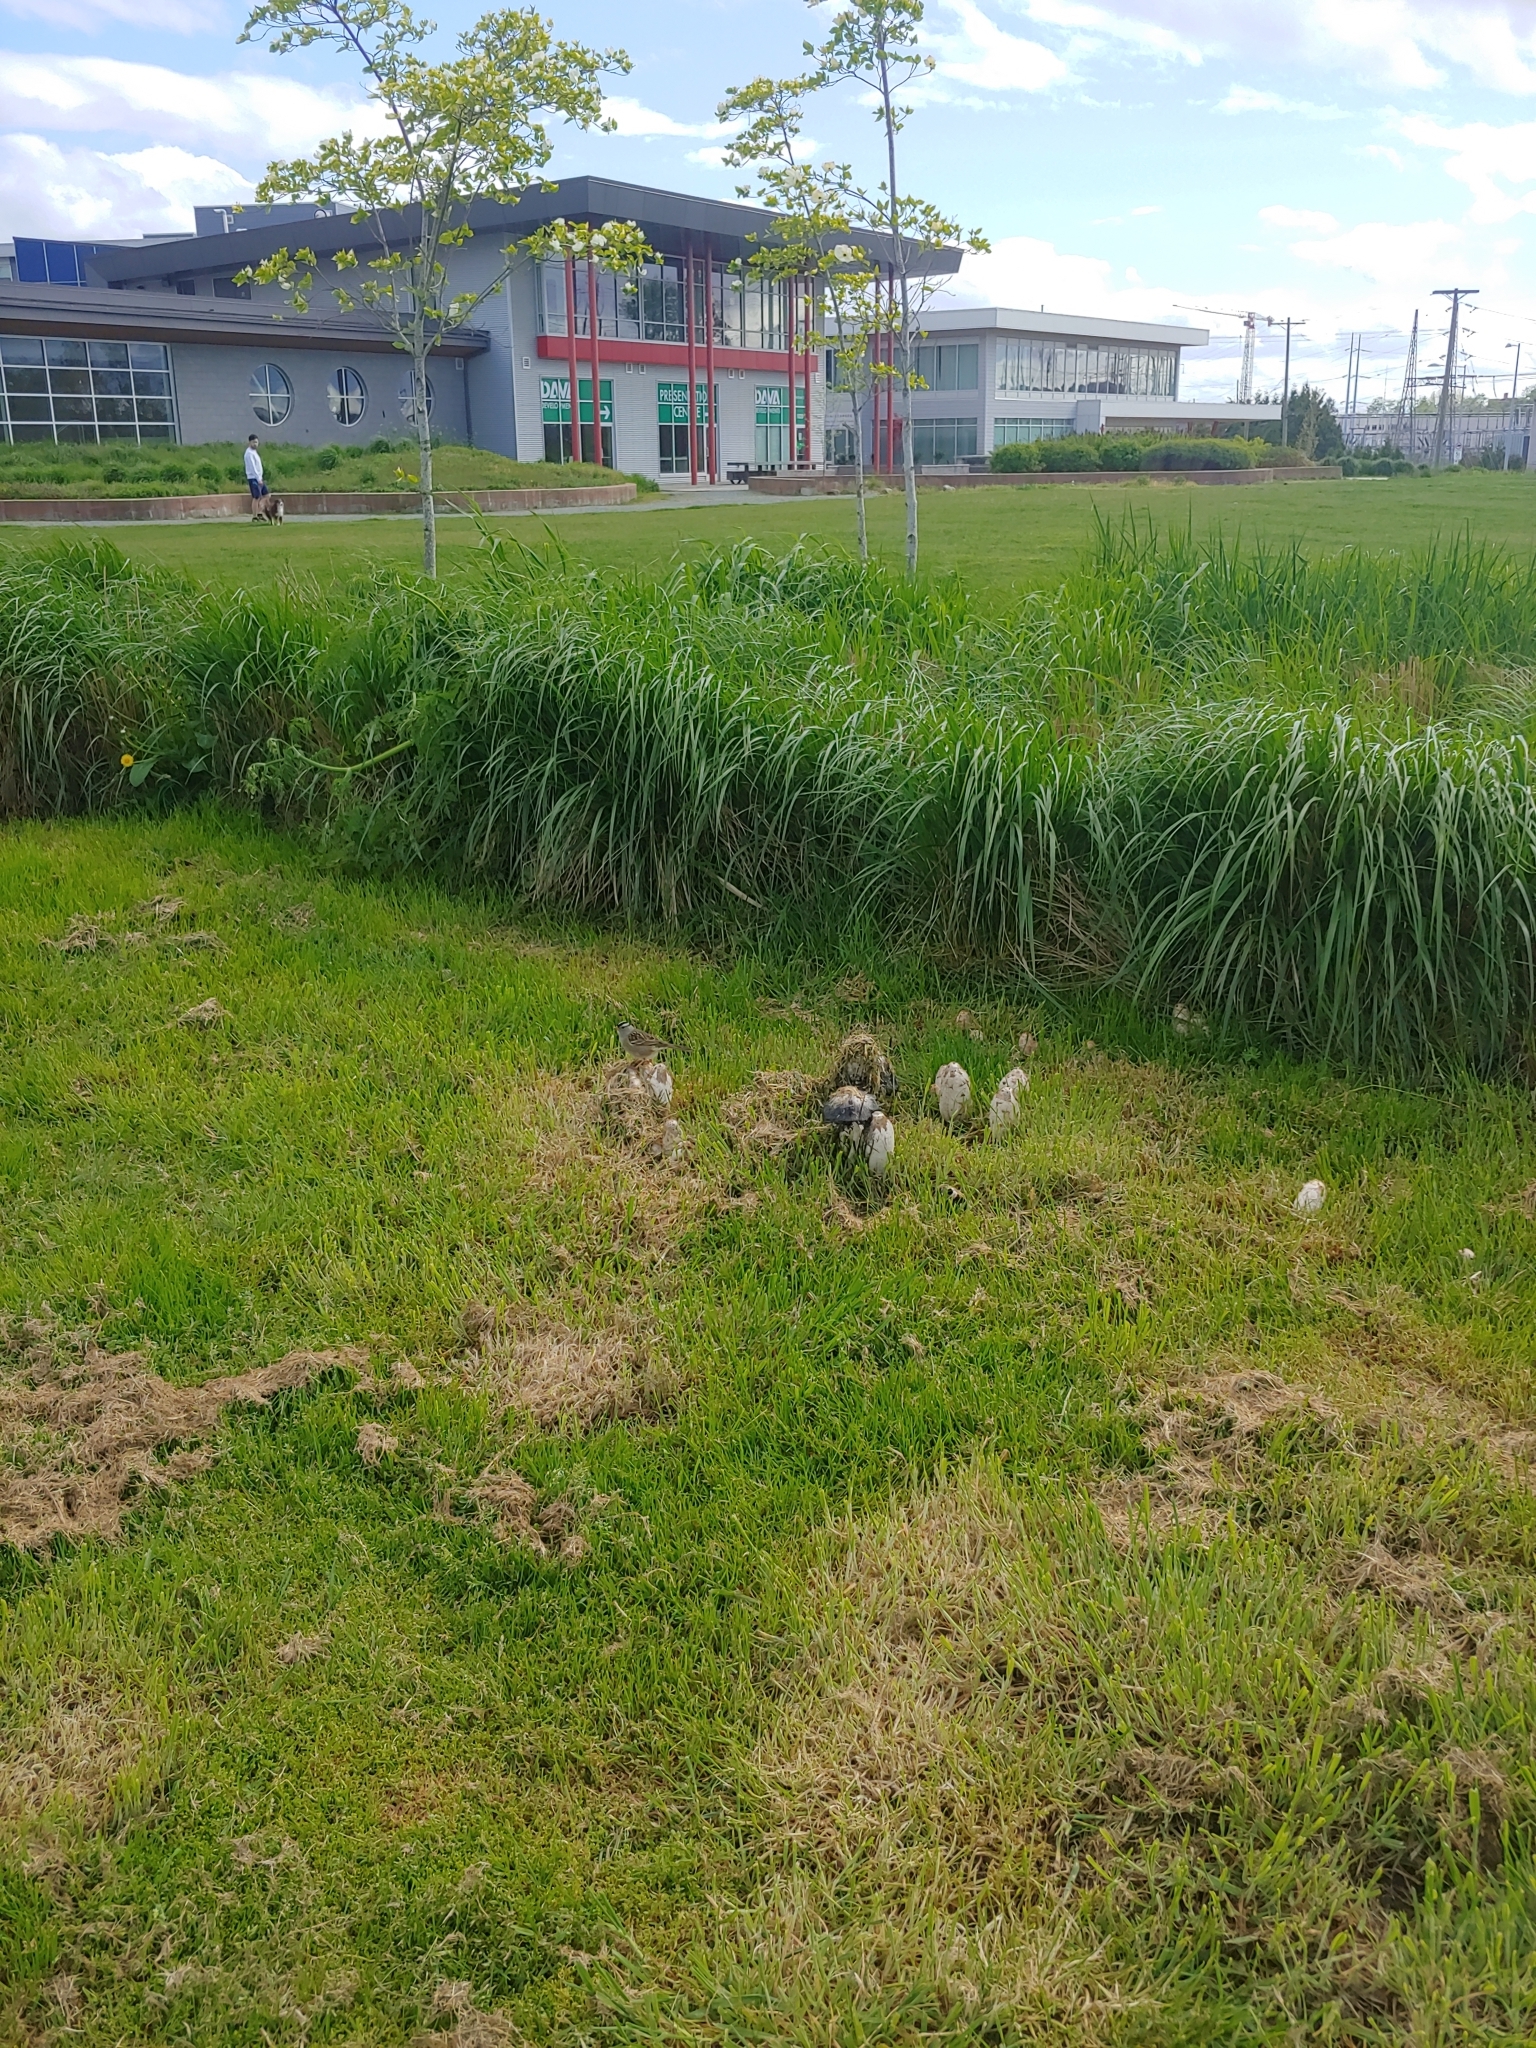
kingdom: Animalia
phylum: Chordata
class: Aves
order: Passeriformes
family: Passerellidae
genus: Zonotrichia
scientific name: Zonotrichia leucophrys
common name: White-crowned sparrow
